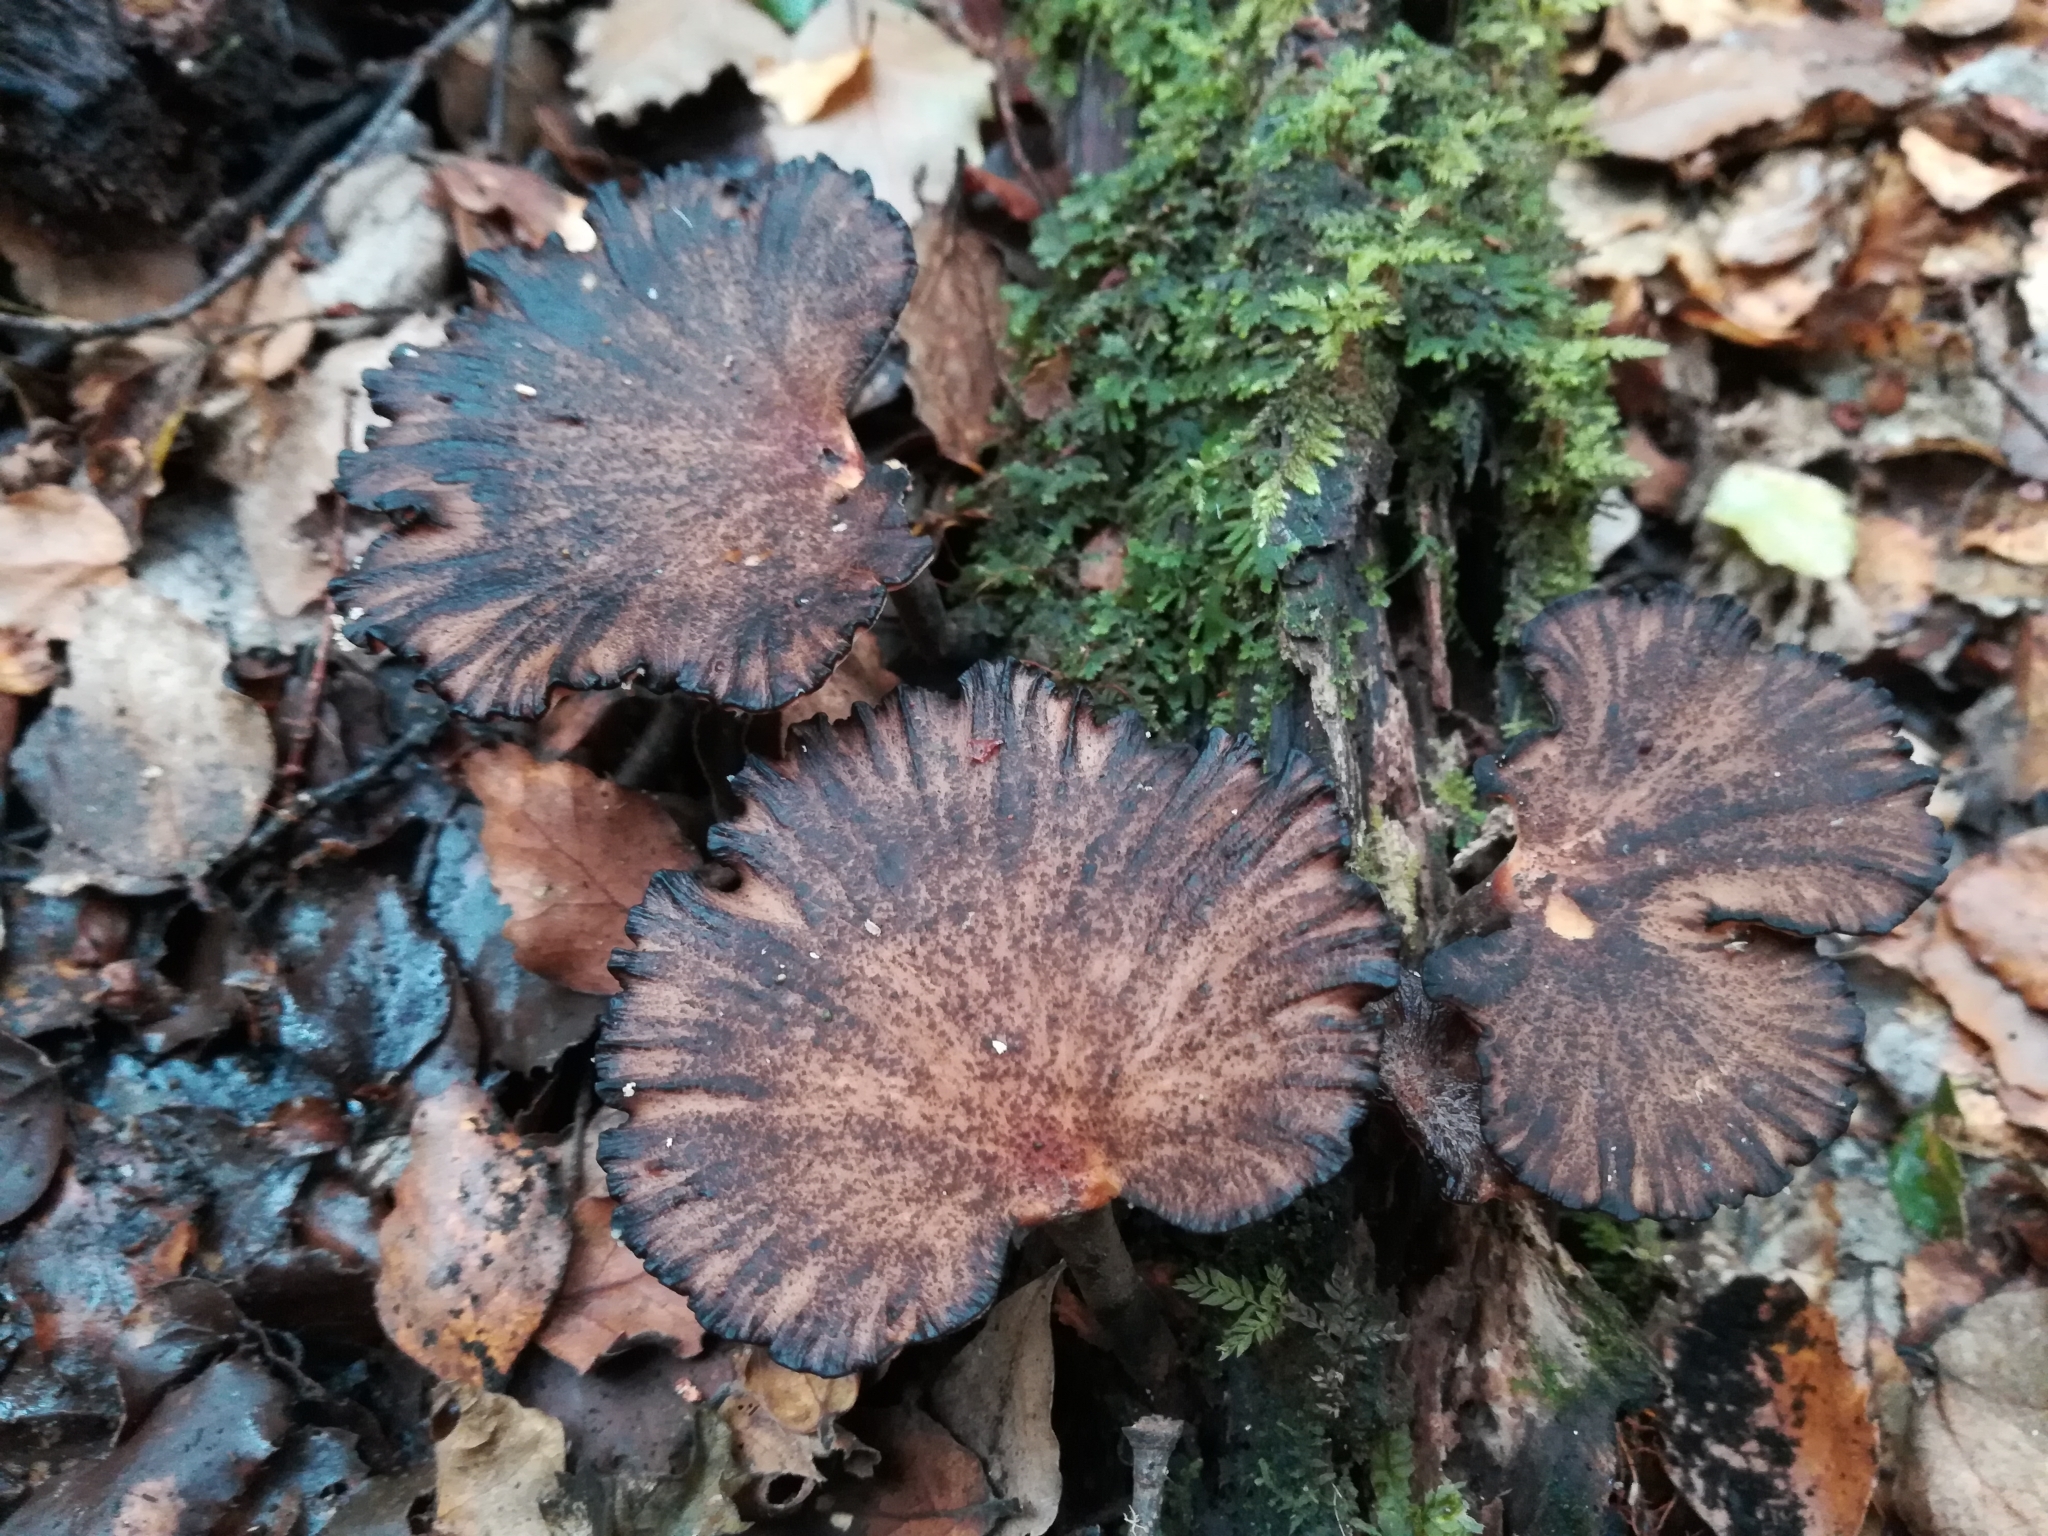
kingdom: Fungi
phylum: Basidiomycota
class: Agaricomycetes
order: Polyporales
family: Polyporaceae
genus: Picipes
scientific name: Picipes dictyopus
